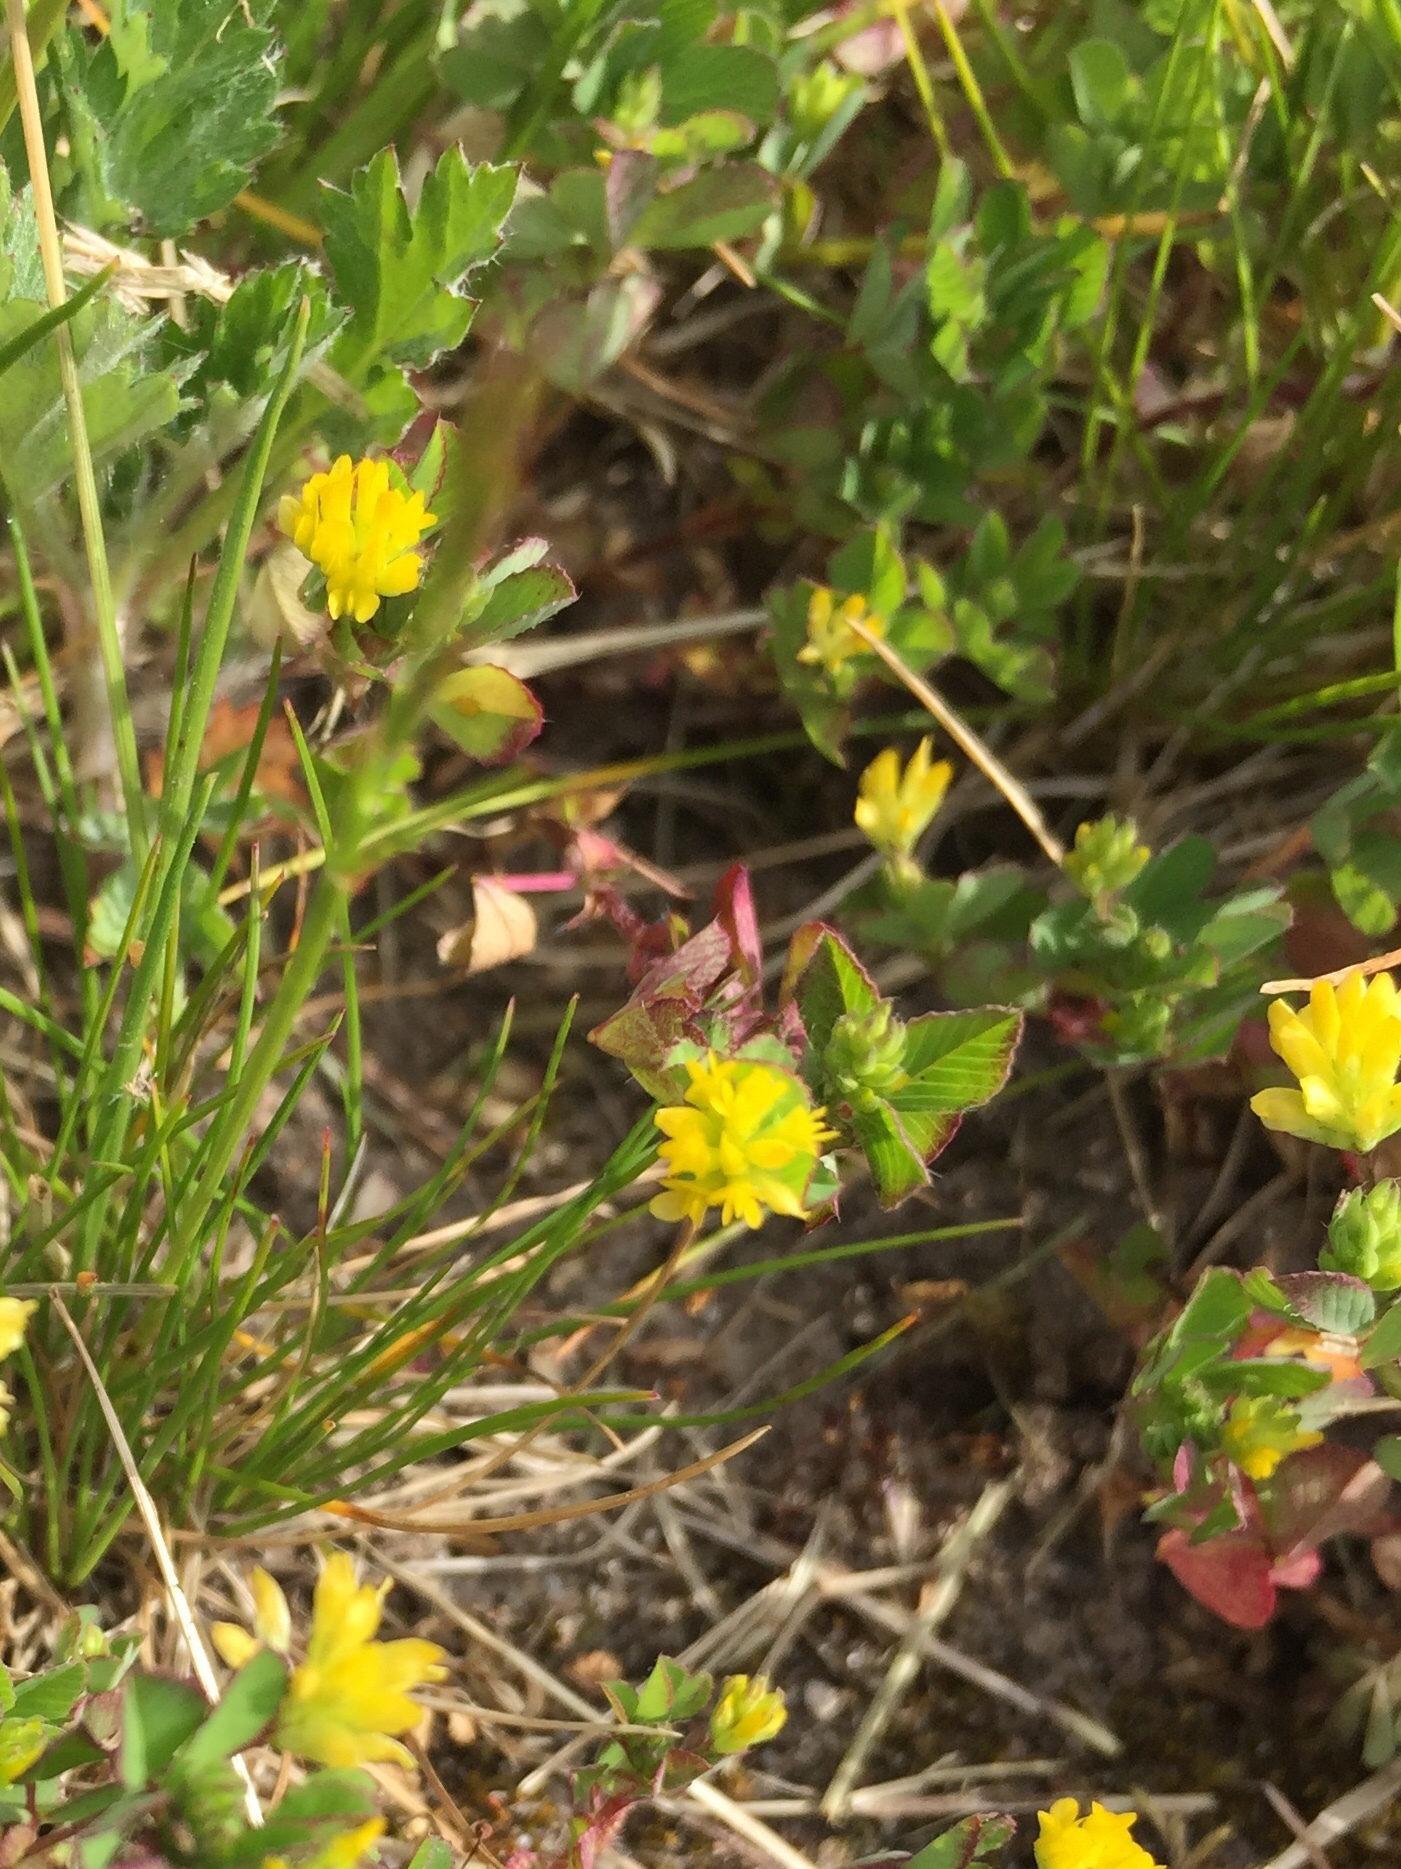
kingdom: Plantae
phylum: Tracheophyta
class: Magnoliopsida
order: Fabales
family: Fabaceae
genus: Trifolium
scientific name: Trifolium dubium
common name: Suckling clover
